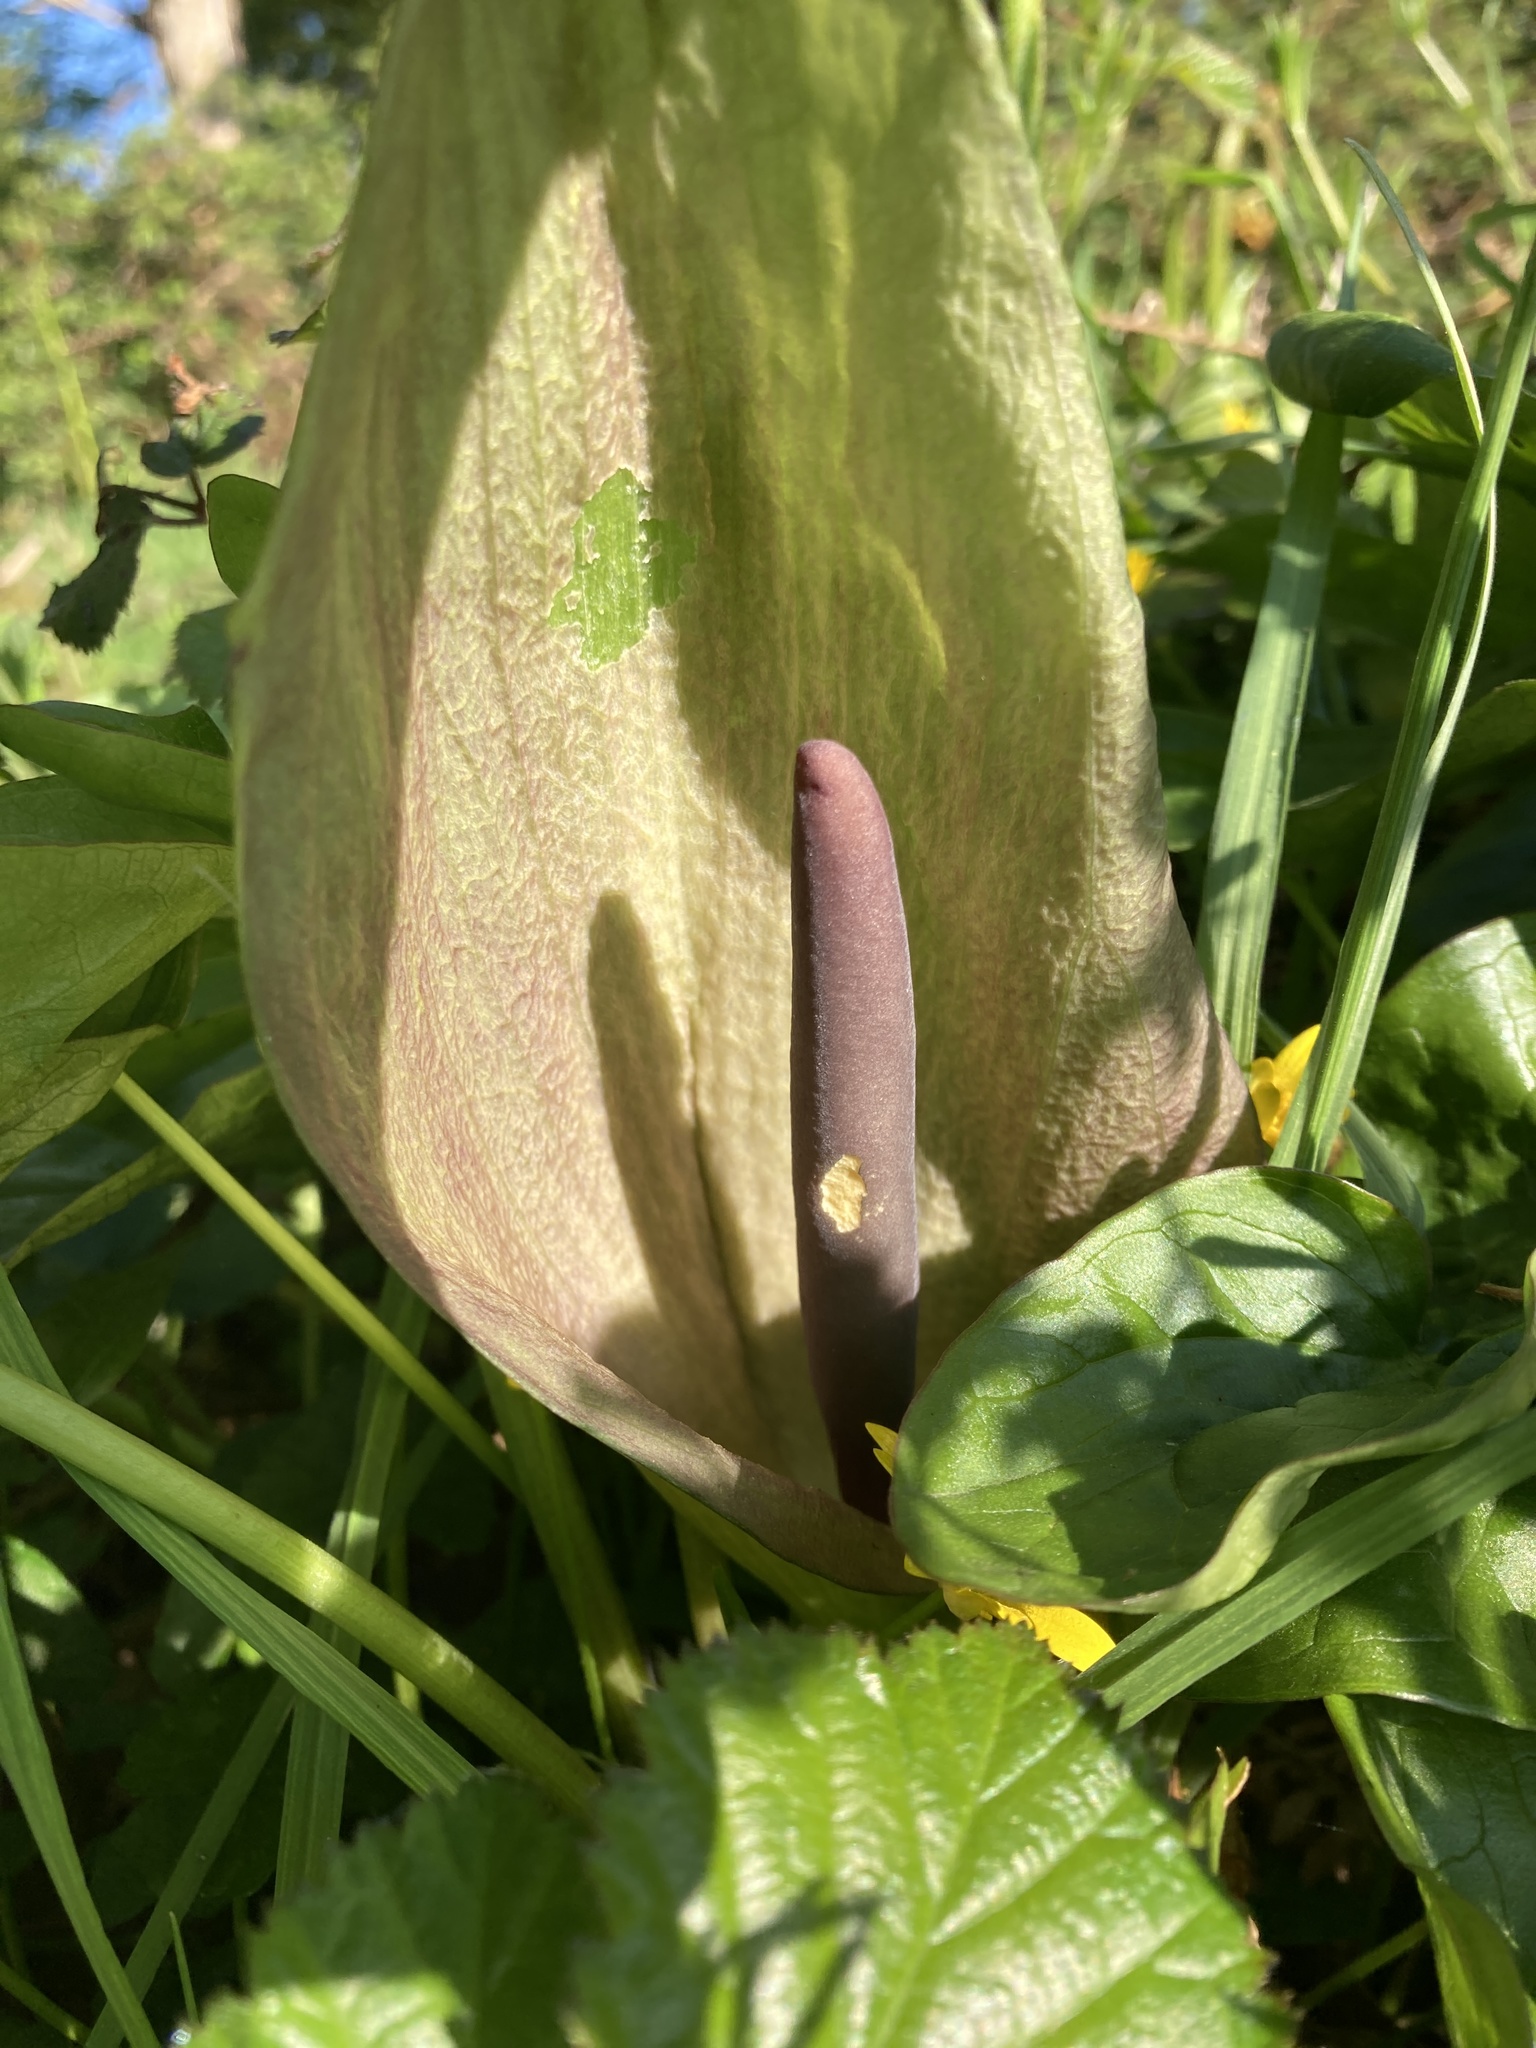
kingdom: Plantae
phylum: Tracheophyta
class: Liliopsida
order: Alismatales
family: Araceae
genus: Arum
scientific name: Arum maculatum
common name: Lords-and-ladies
